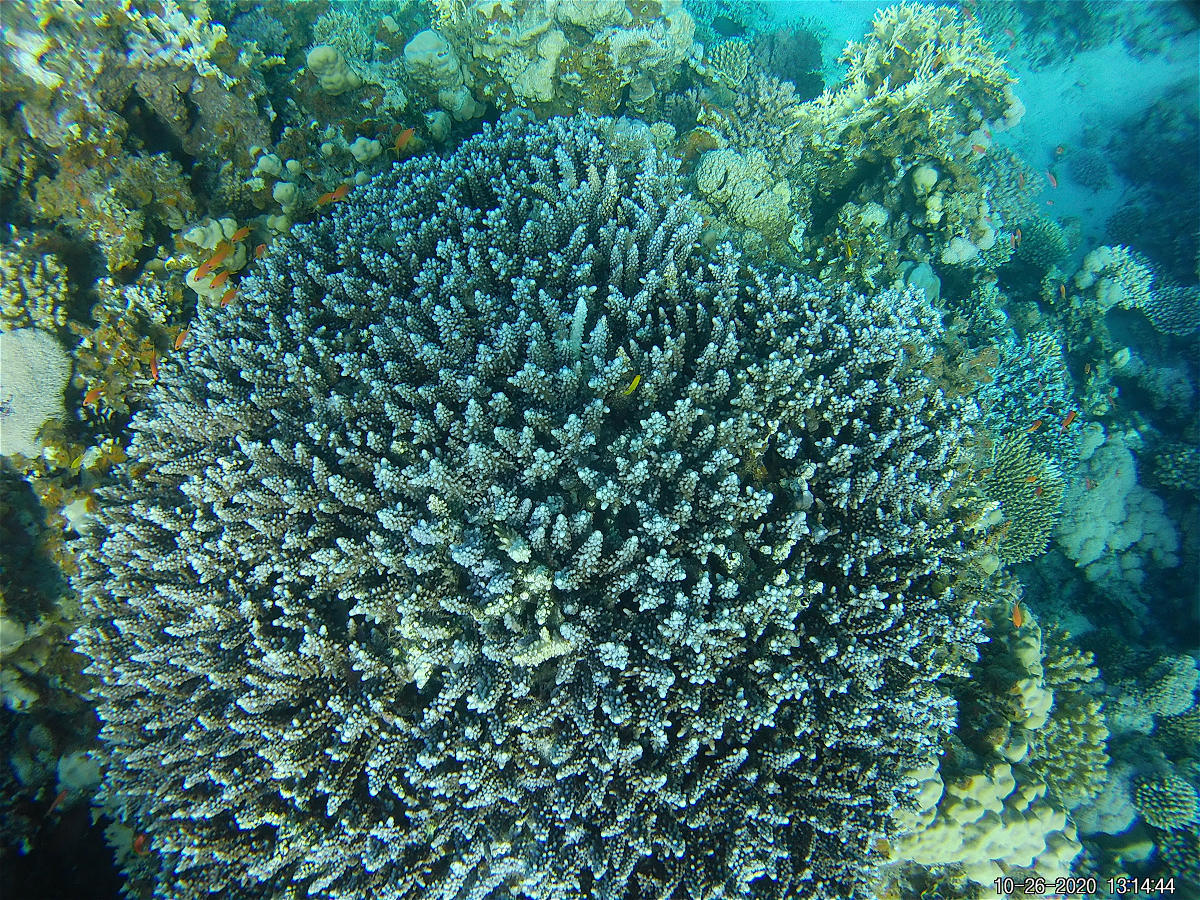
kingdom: Animalia
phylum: Cnidaria
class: Anthozoa
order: Scleractinia
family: Acroporidae
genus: Acropora
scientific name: Acropora hemprichii
